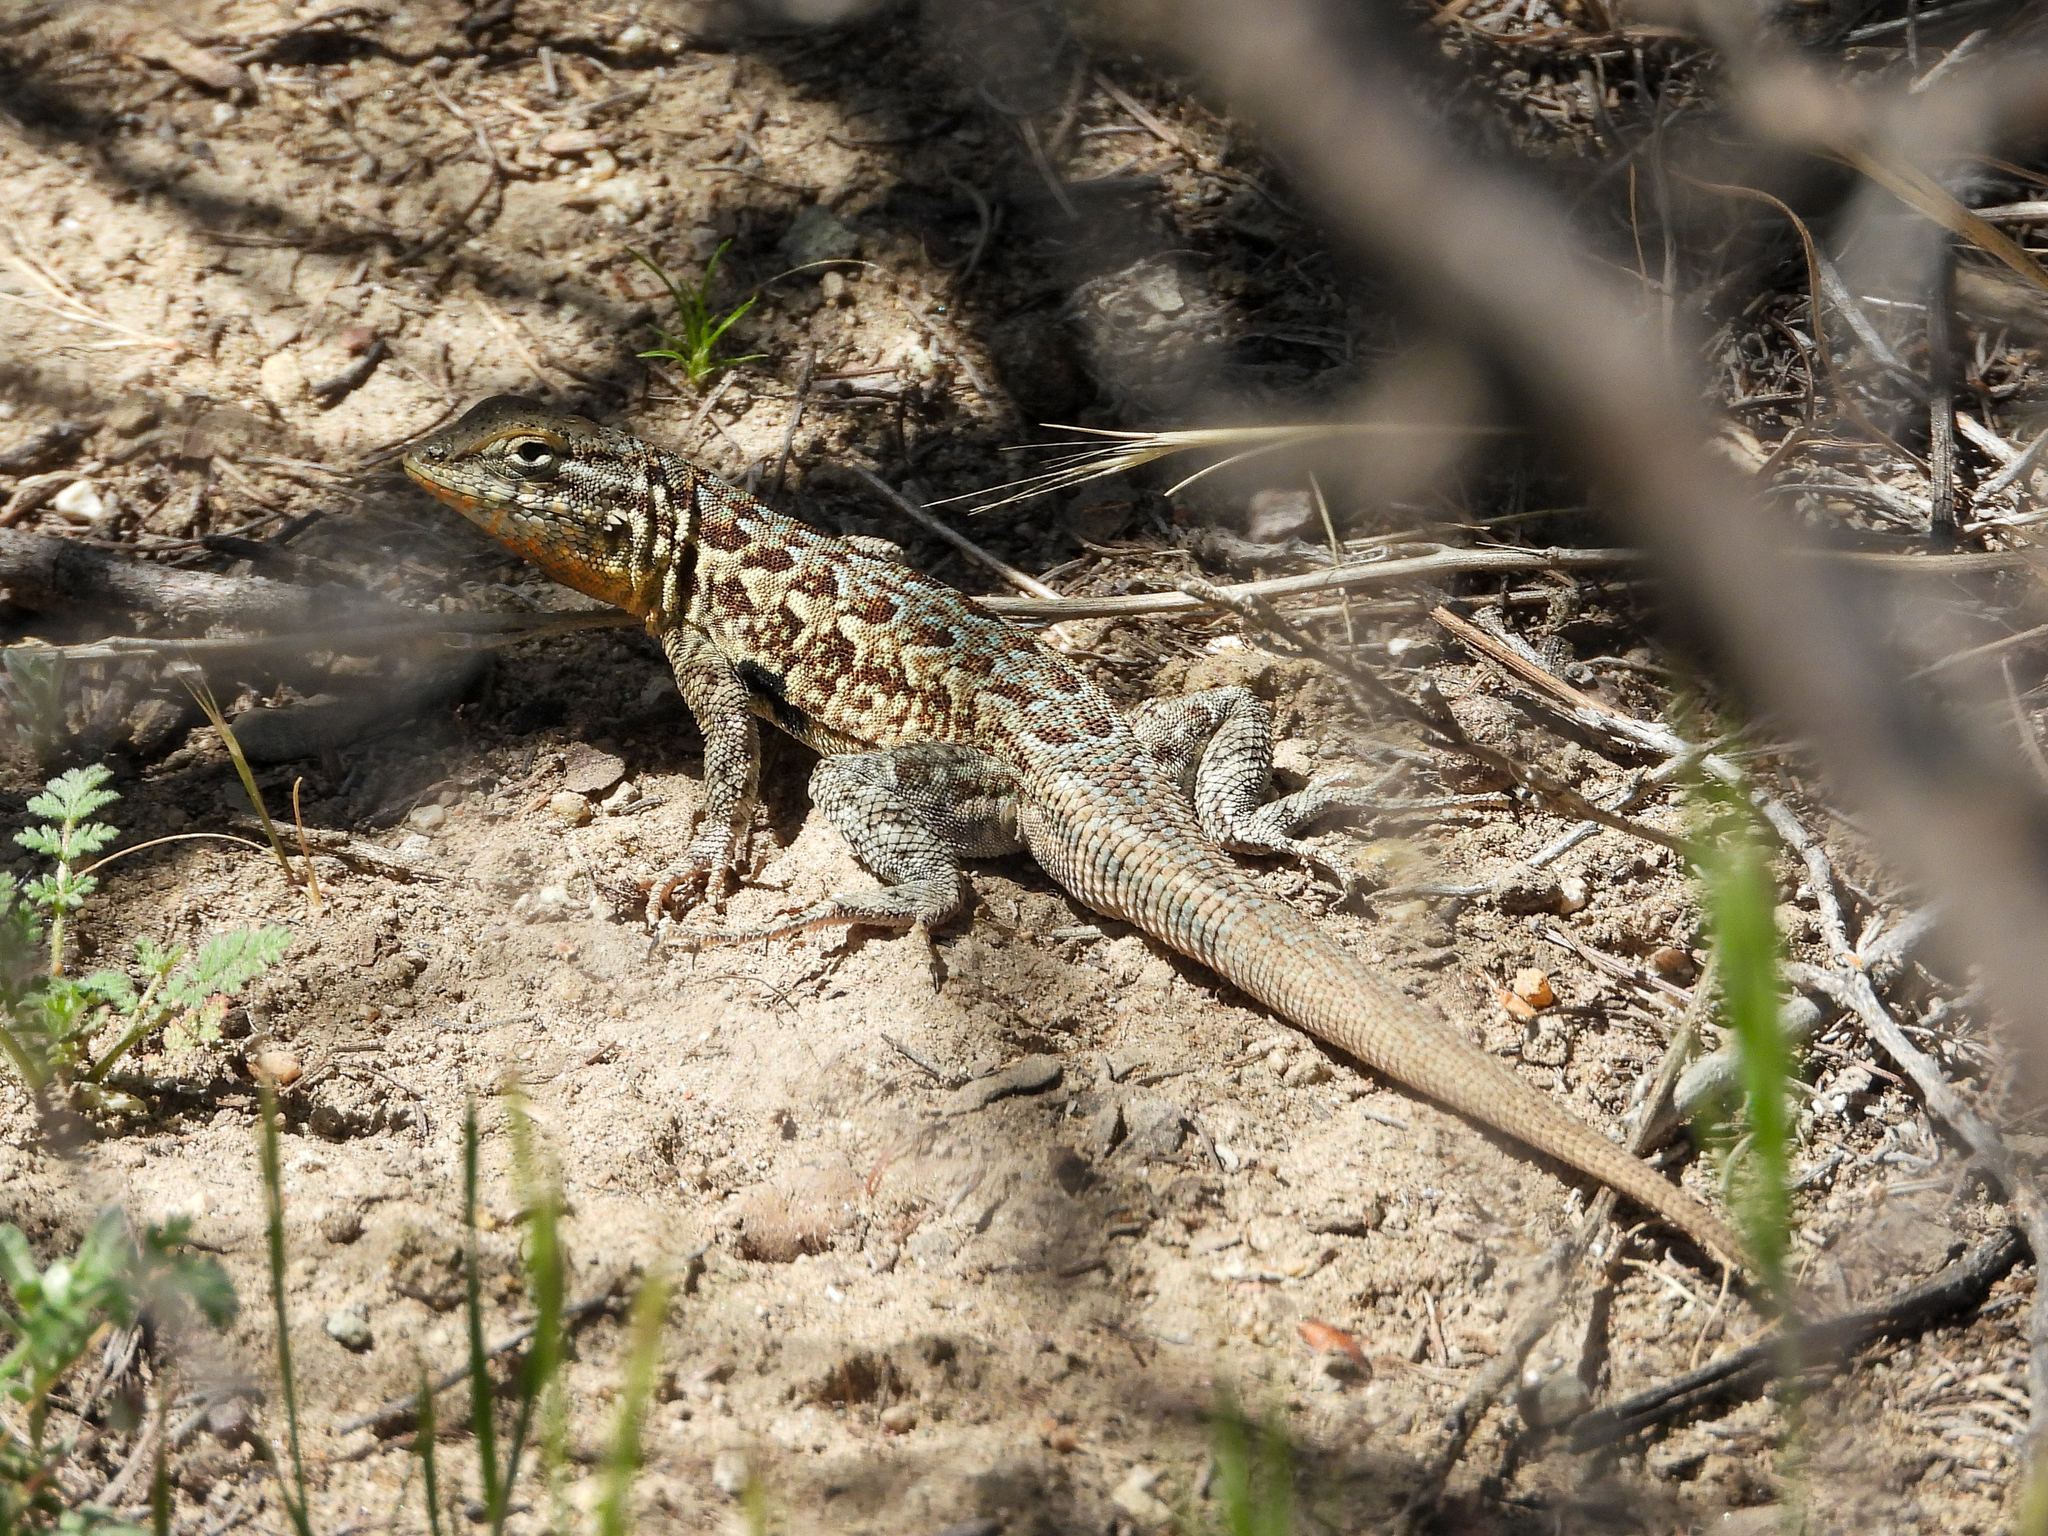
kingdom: Animalia
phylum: Chordata
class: Squamata
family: Phrynosomatidae
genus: Uta
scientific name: Uta stansburiana
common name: Side-blotched lizard
